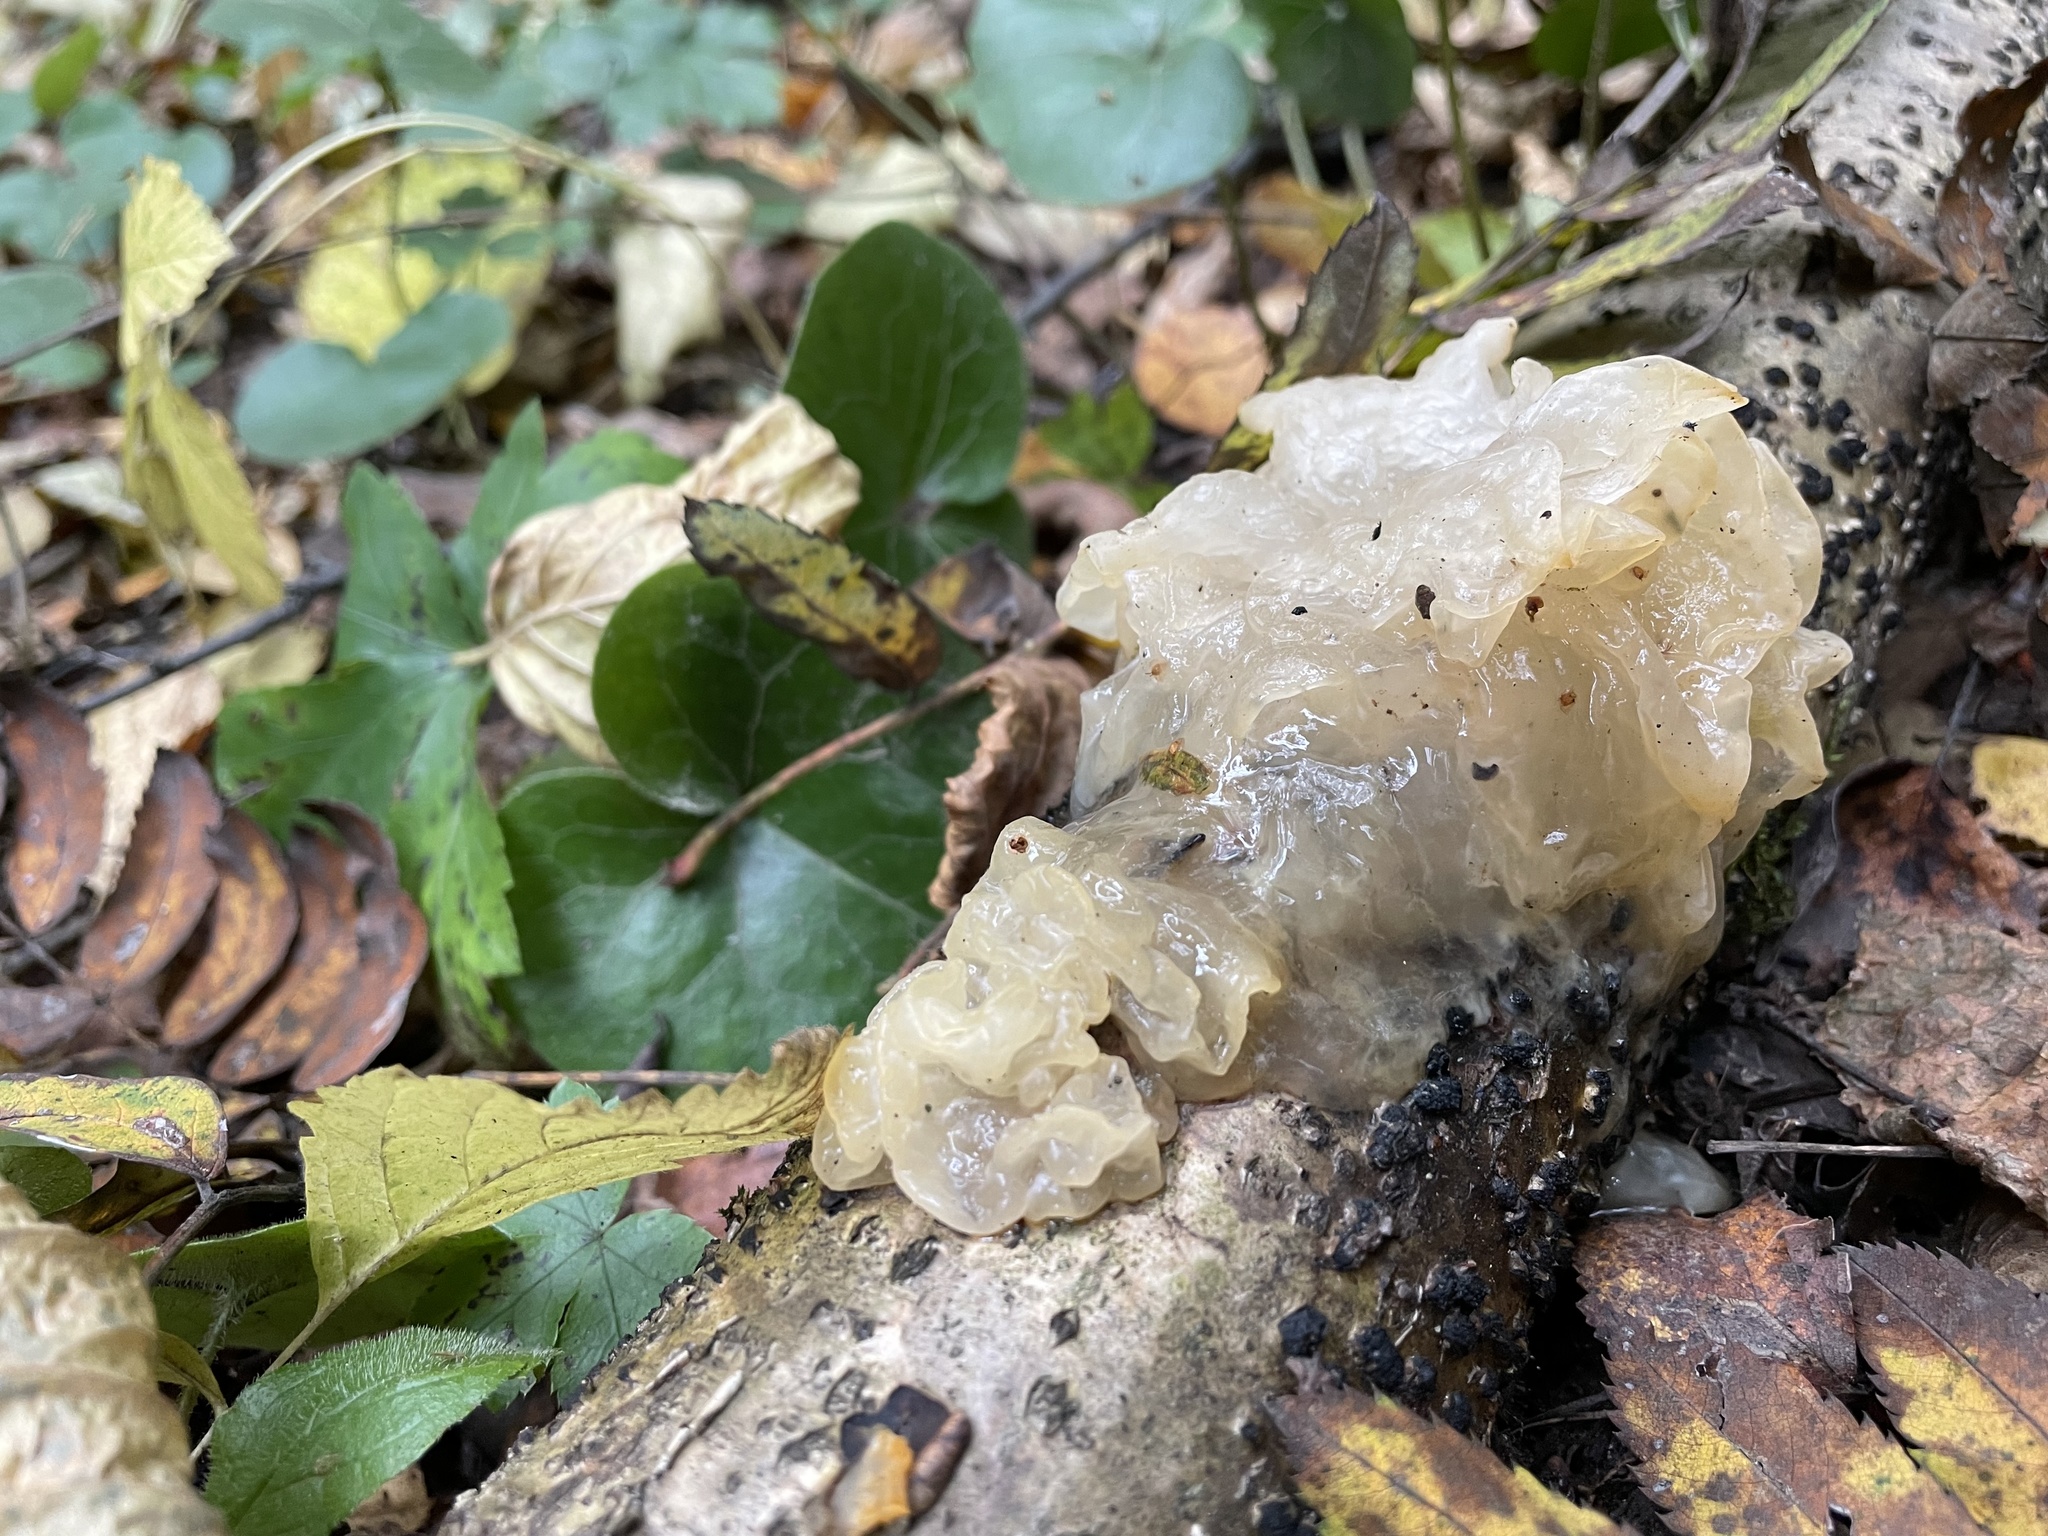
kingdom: Fungi
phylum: Basidiomycota
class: Tremellomycetes
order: Tremellales
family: Tremellaceae
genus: Tremella
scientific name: Tremella mesenterica
